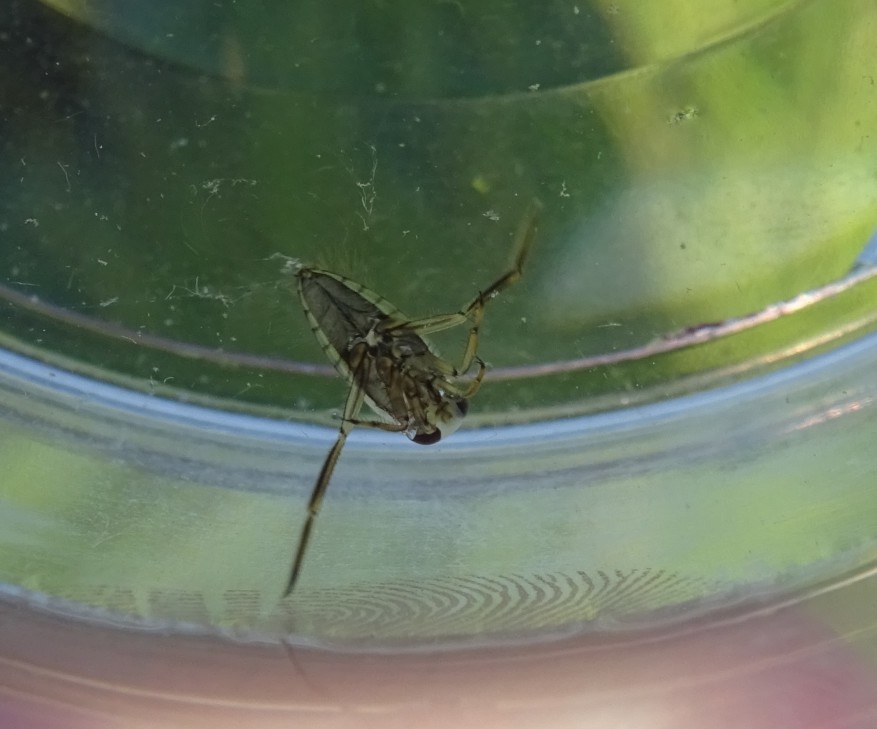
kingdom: Animalia
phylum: Arthropoda
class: Insecta
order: Hemiptera
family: Notonectidae
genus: Notonecta
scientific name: Notonecta
